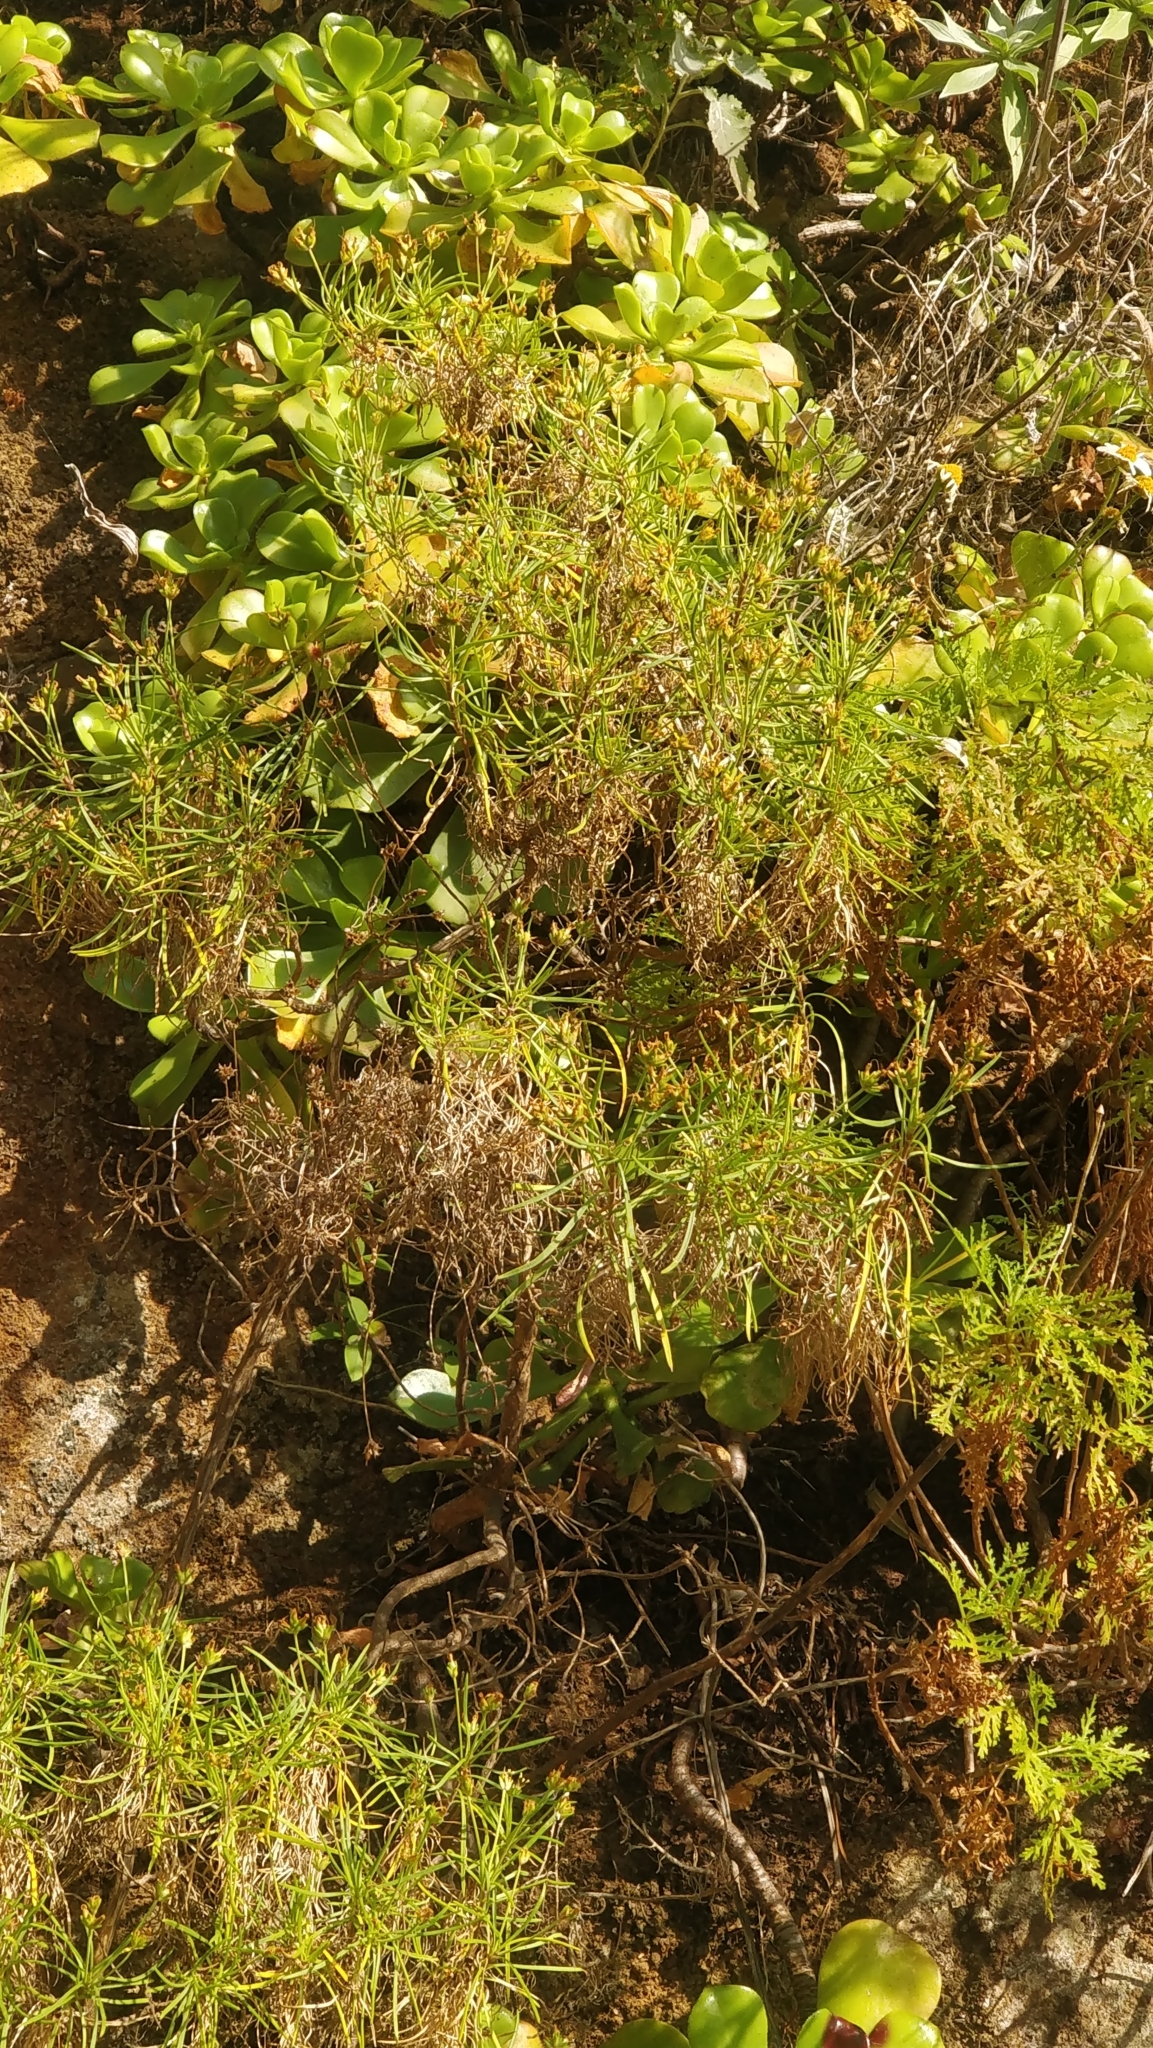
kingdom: Plantae
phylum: Tracheophyta
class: Magnoliopsida
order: Lamiales
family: Plantaginaceae
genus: Plantago
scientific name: Plantago arborescens
